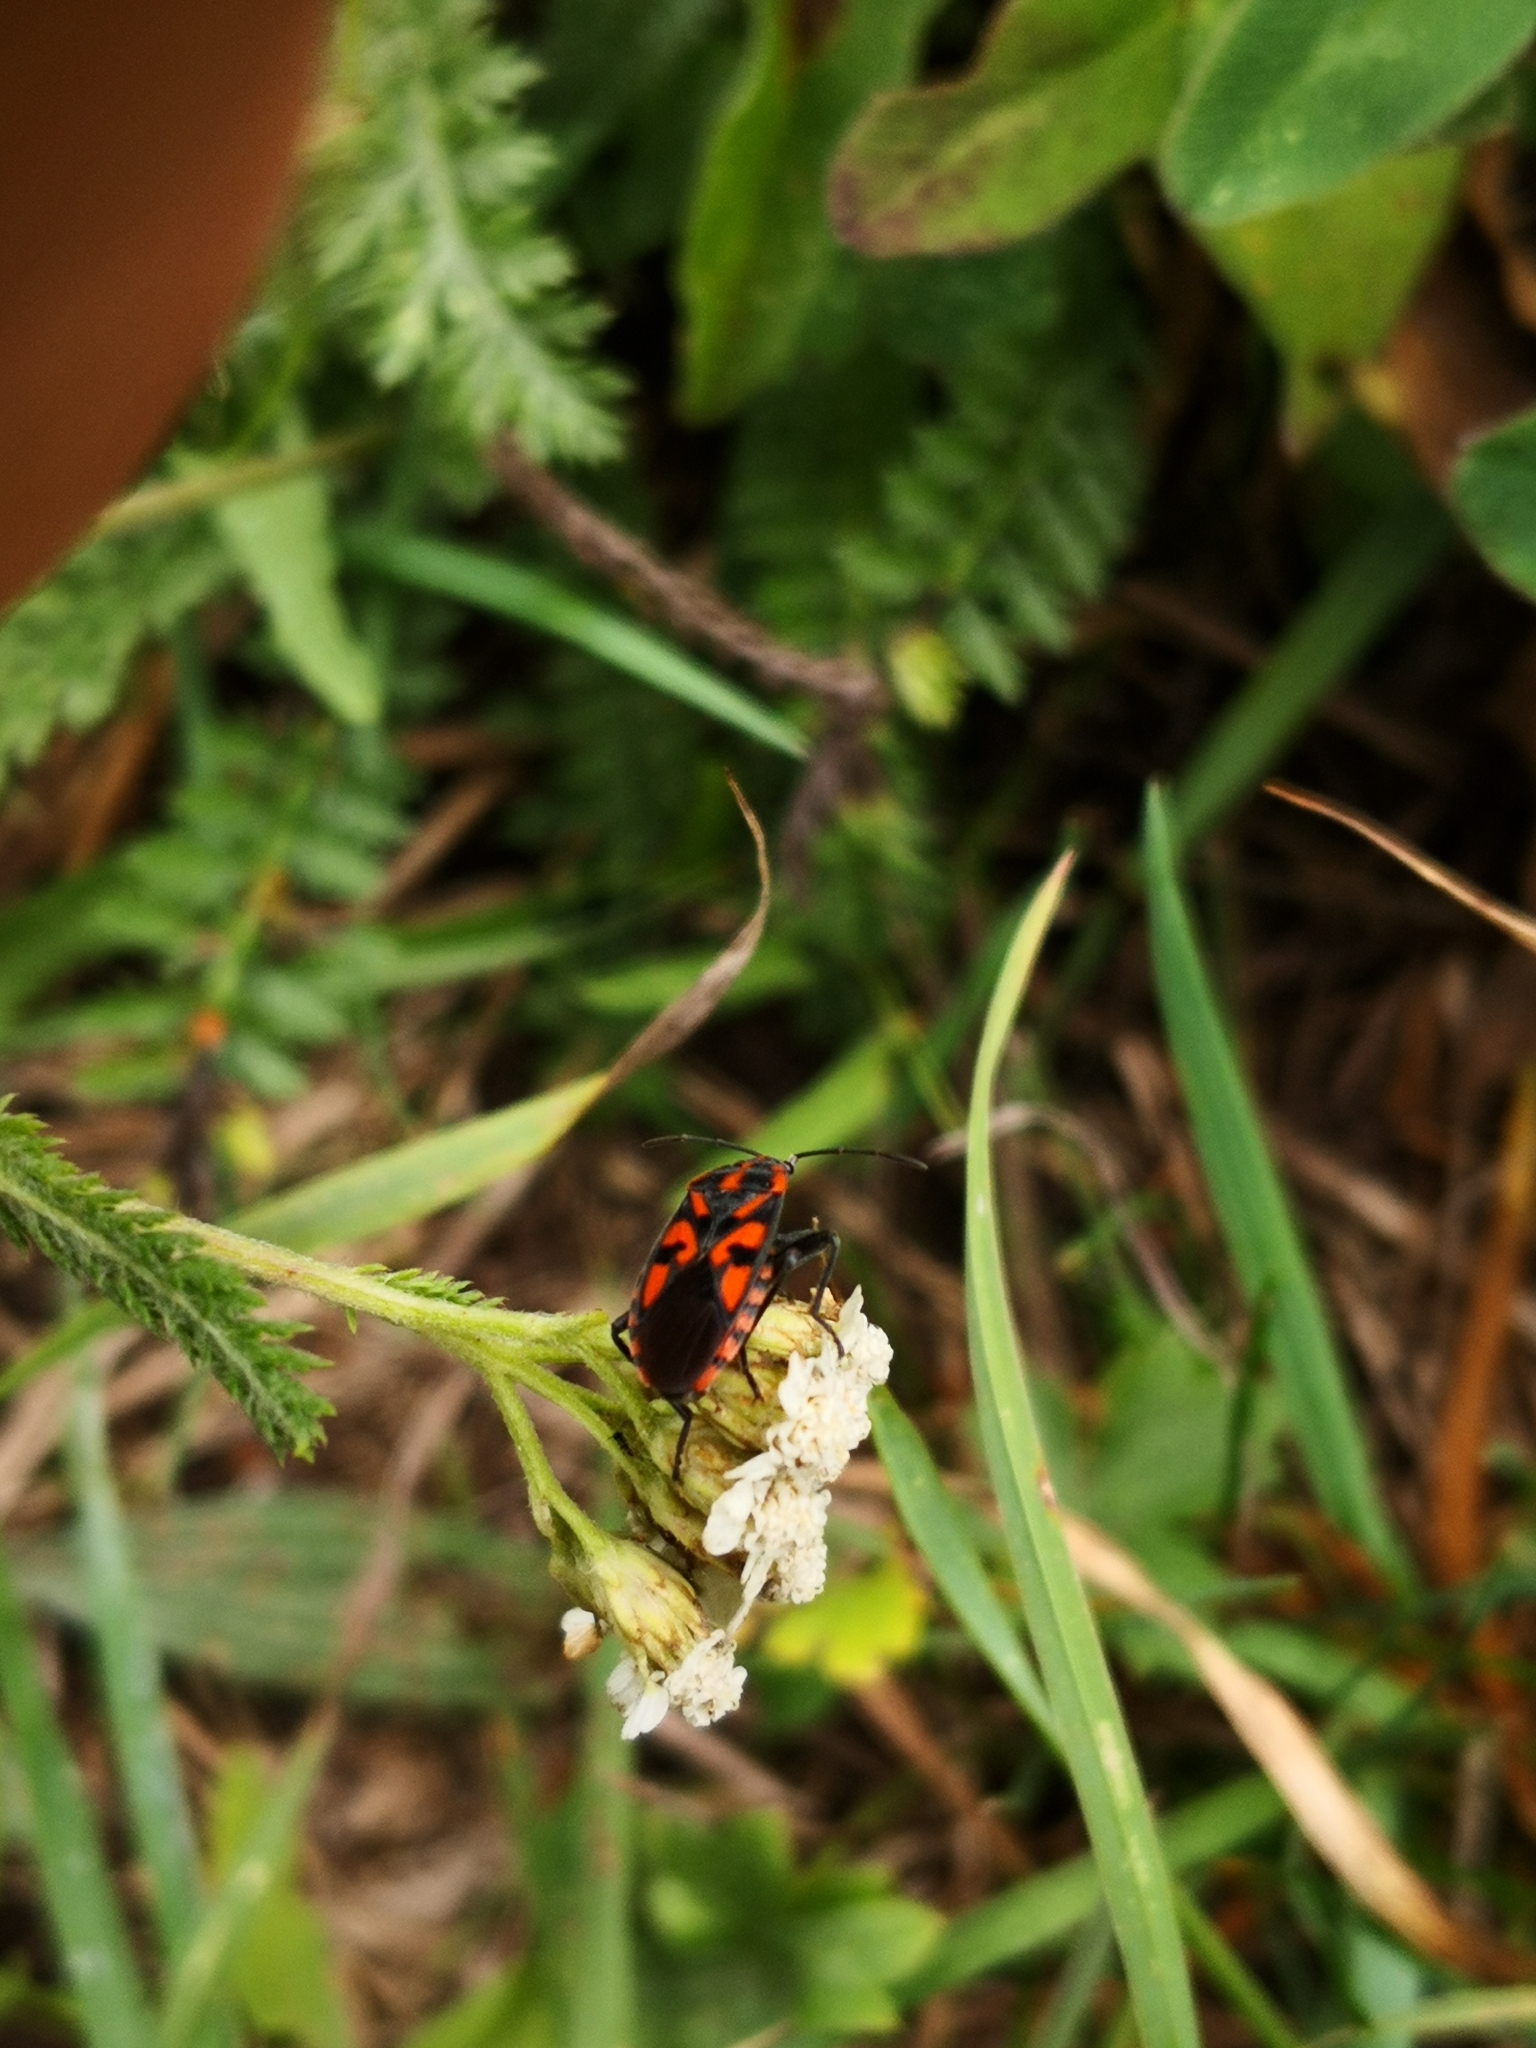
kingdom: Animalia
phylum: Arthropoda
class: Insecta
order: Hemiptera
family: Lygaeidae
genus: Spilostethus
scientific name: Spilostethus saxatilis
